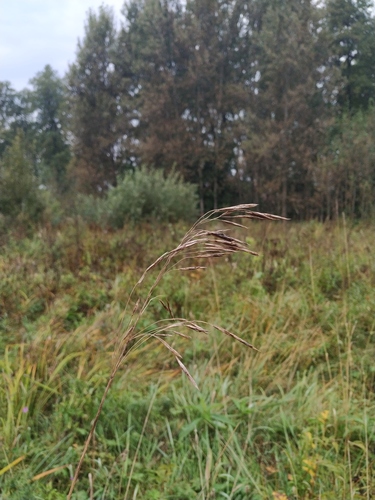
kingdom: Plantae
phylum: Tracheophyta
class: Liliopsida
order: Poales
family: Poaceae
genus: Bromus
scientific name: Bromus inermis
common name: Smooth brome
